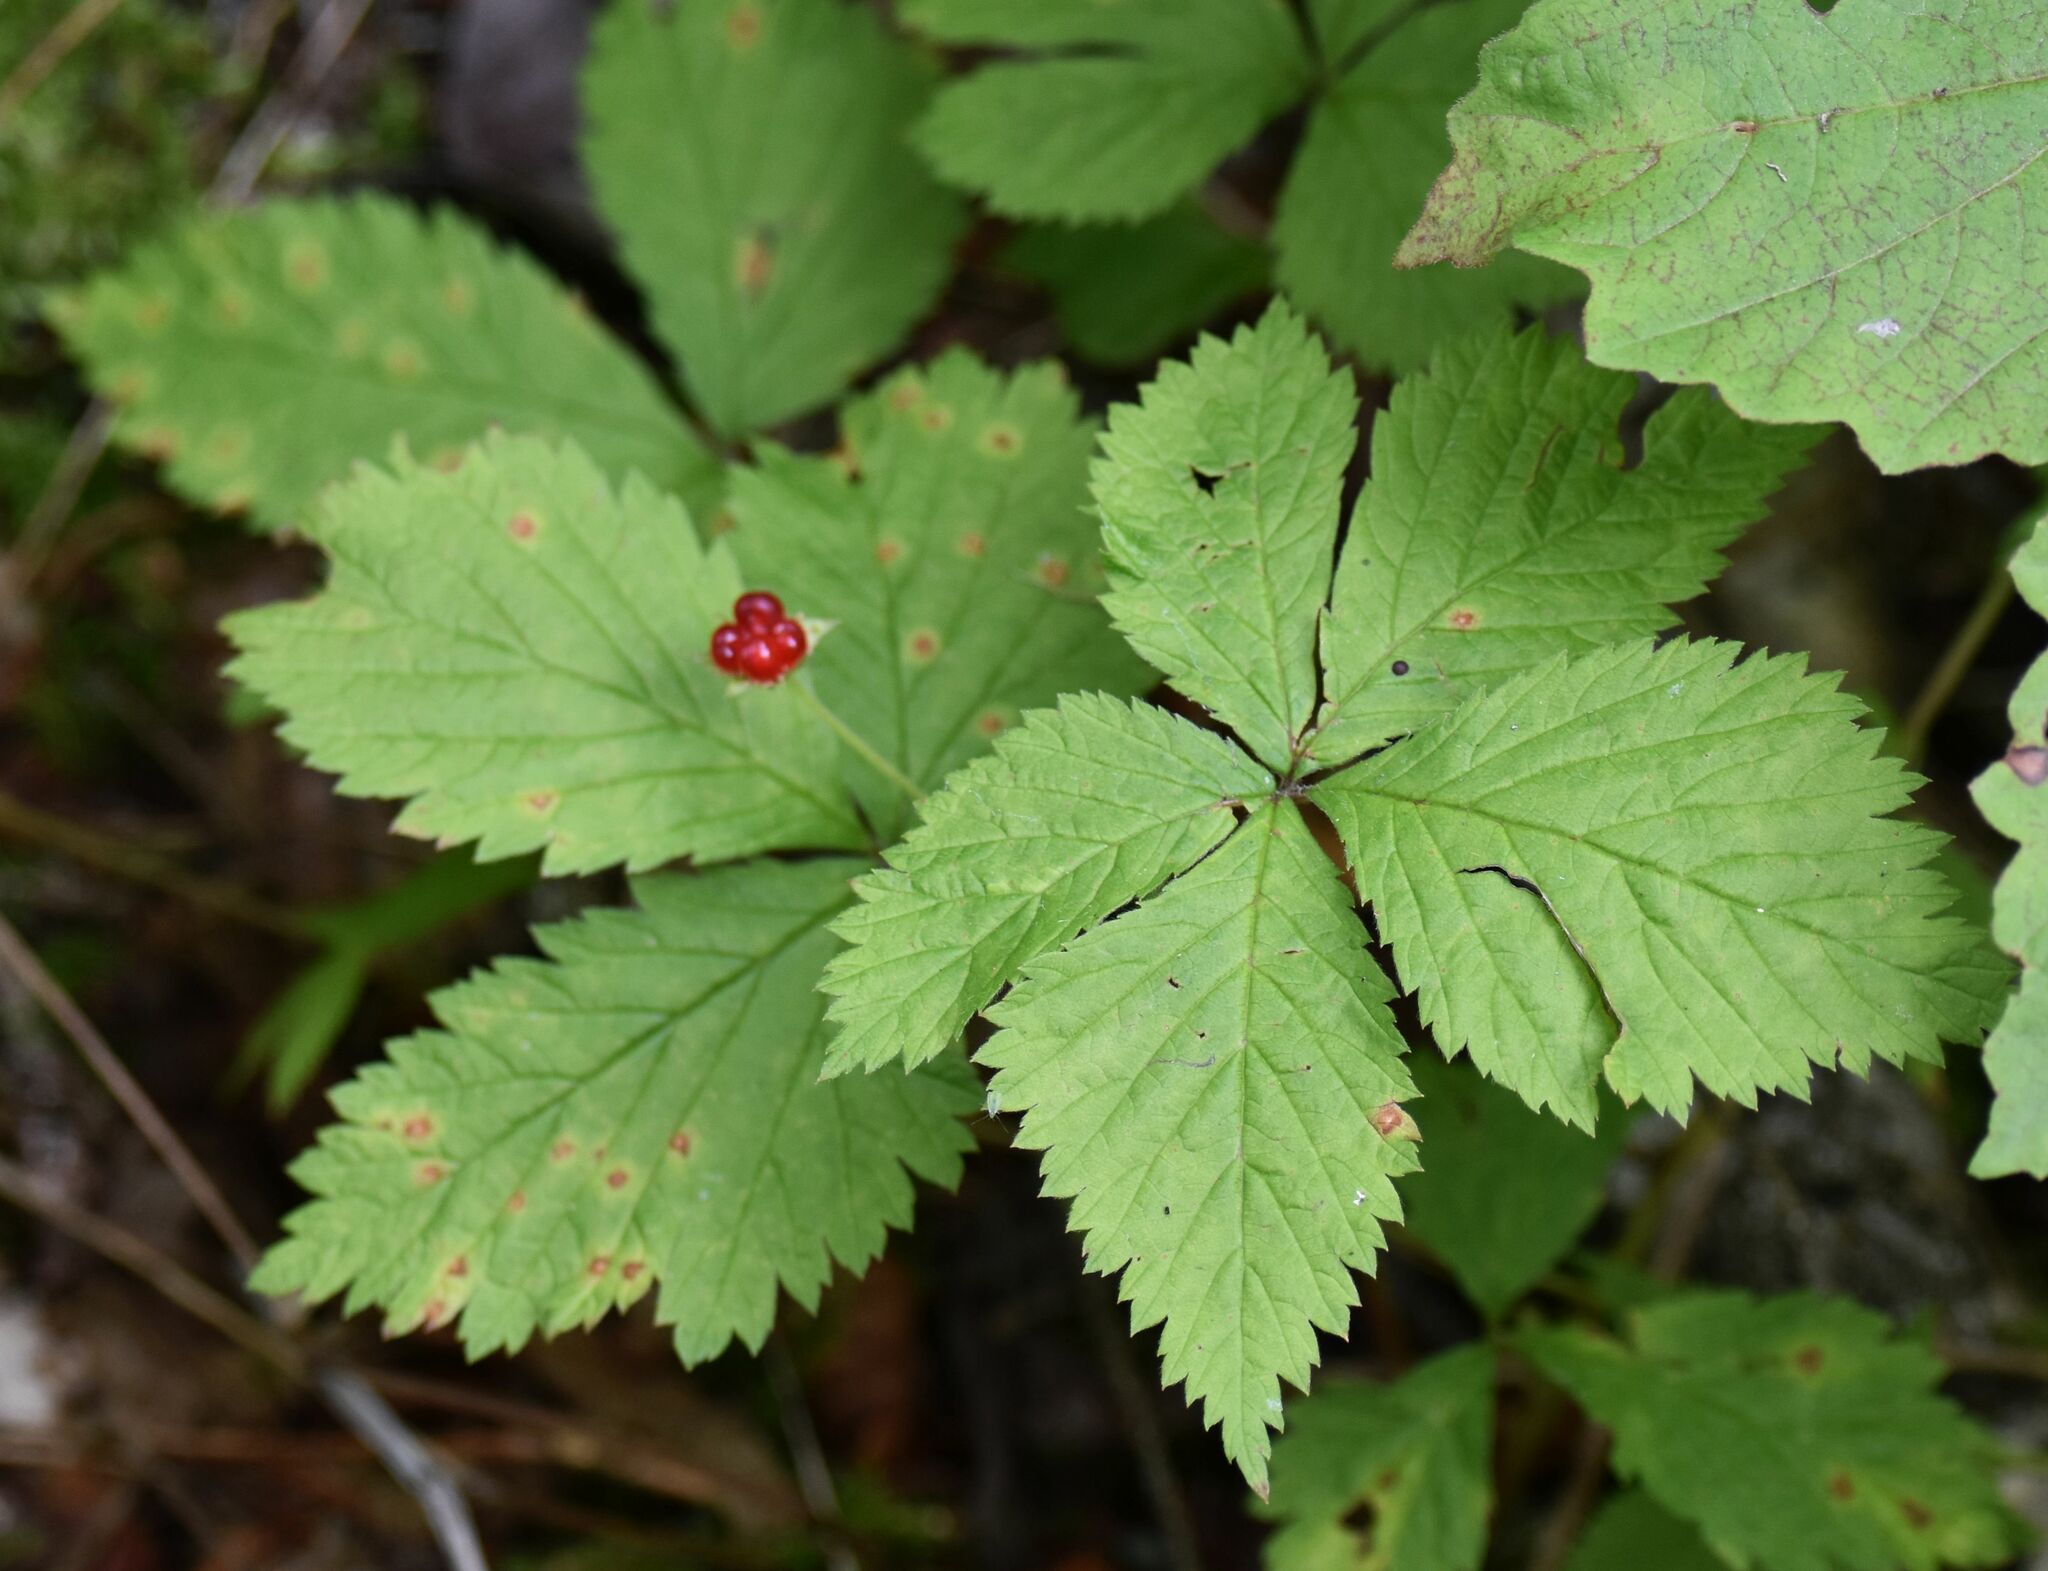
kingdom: Plantae
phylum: Tracheophyta
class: Magnoliopsida
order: Rosales
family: Rosaceae
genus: Rubus
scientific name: Rubus pubescens
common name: Dwarf raspberry
